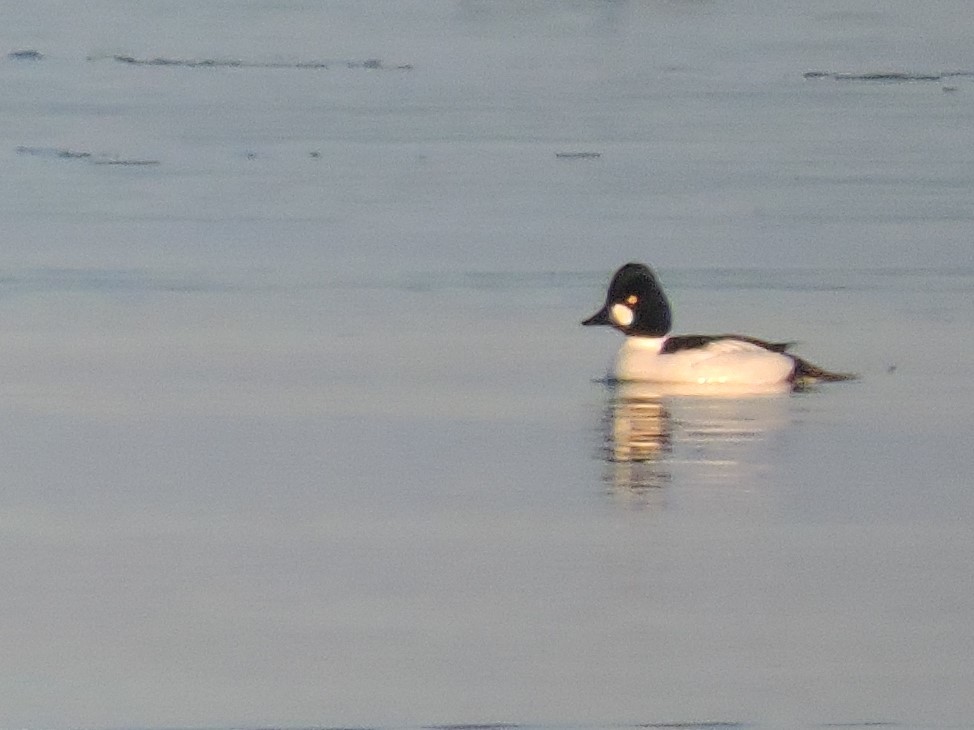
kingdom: Animalia
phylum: Chordata
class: Aves
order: Anseriformes
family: Anatidae
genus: Bucephala
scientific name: Bucephala clangula
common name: Common goldeneye
